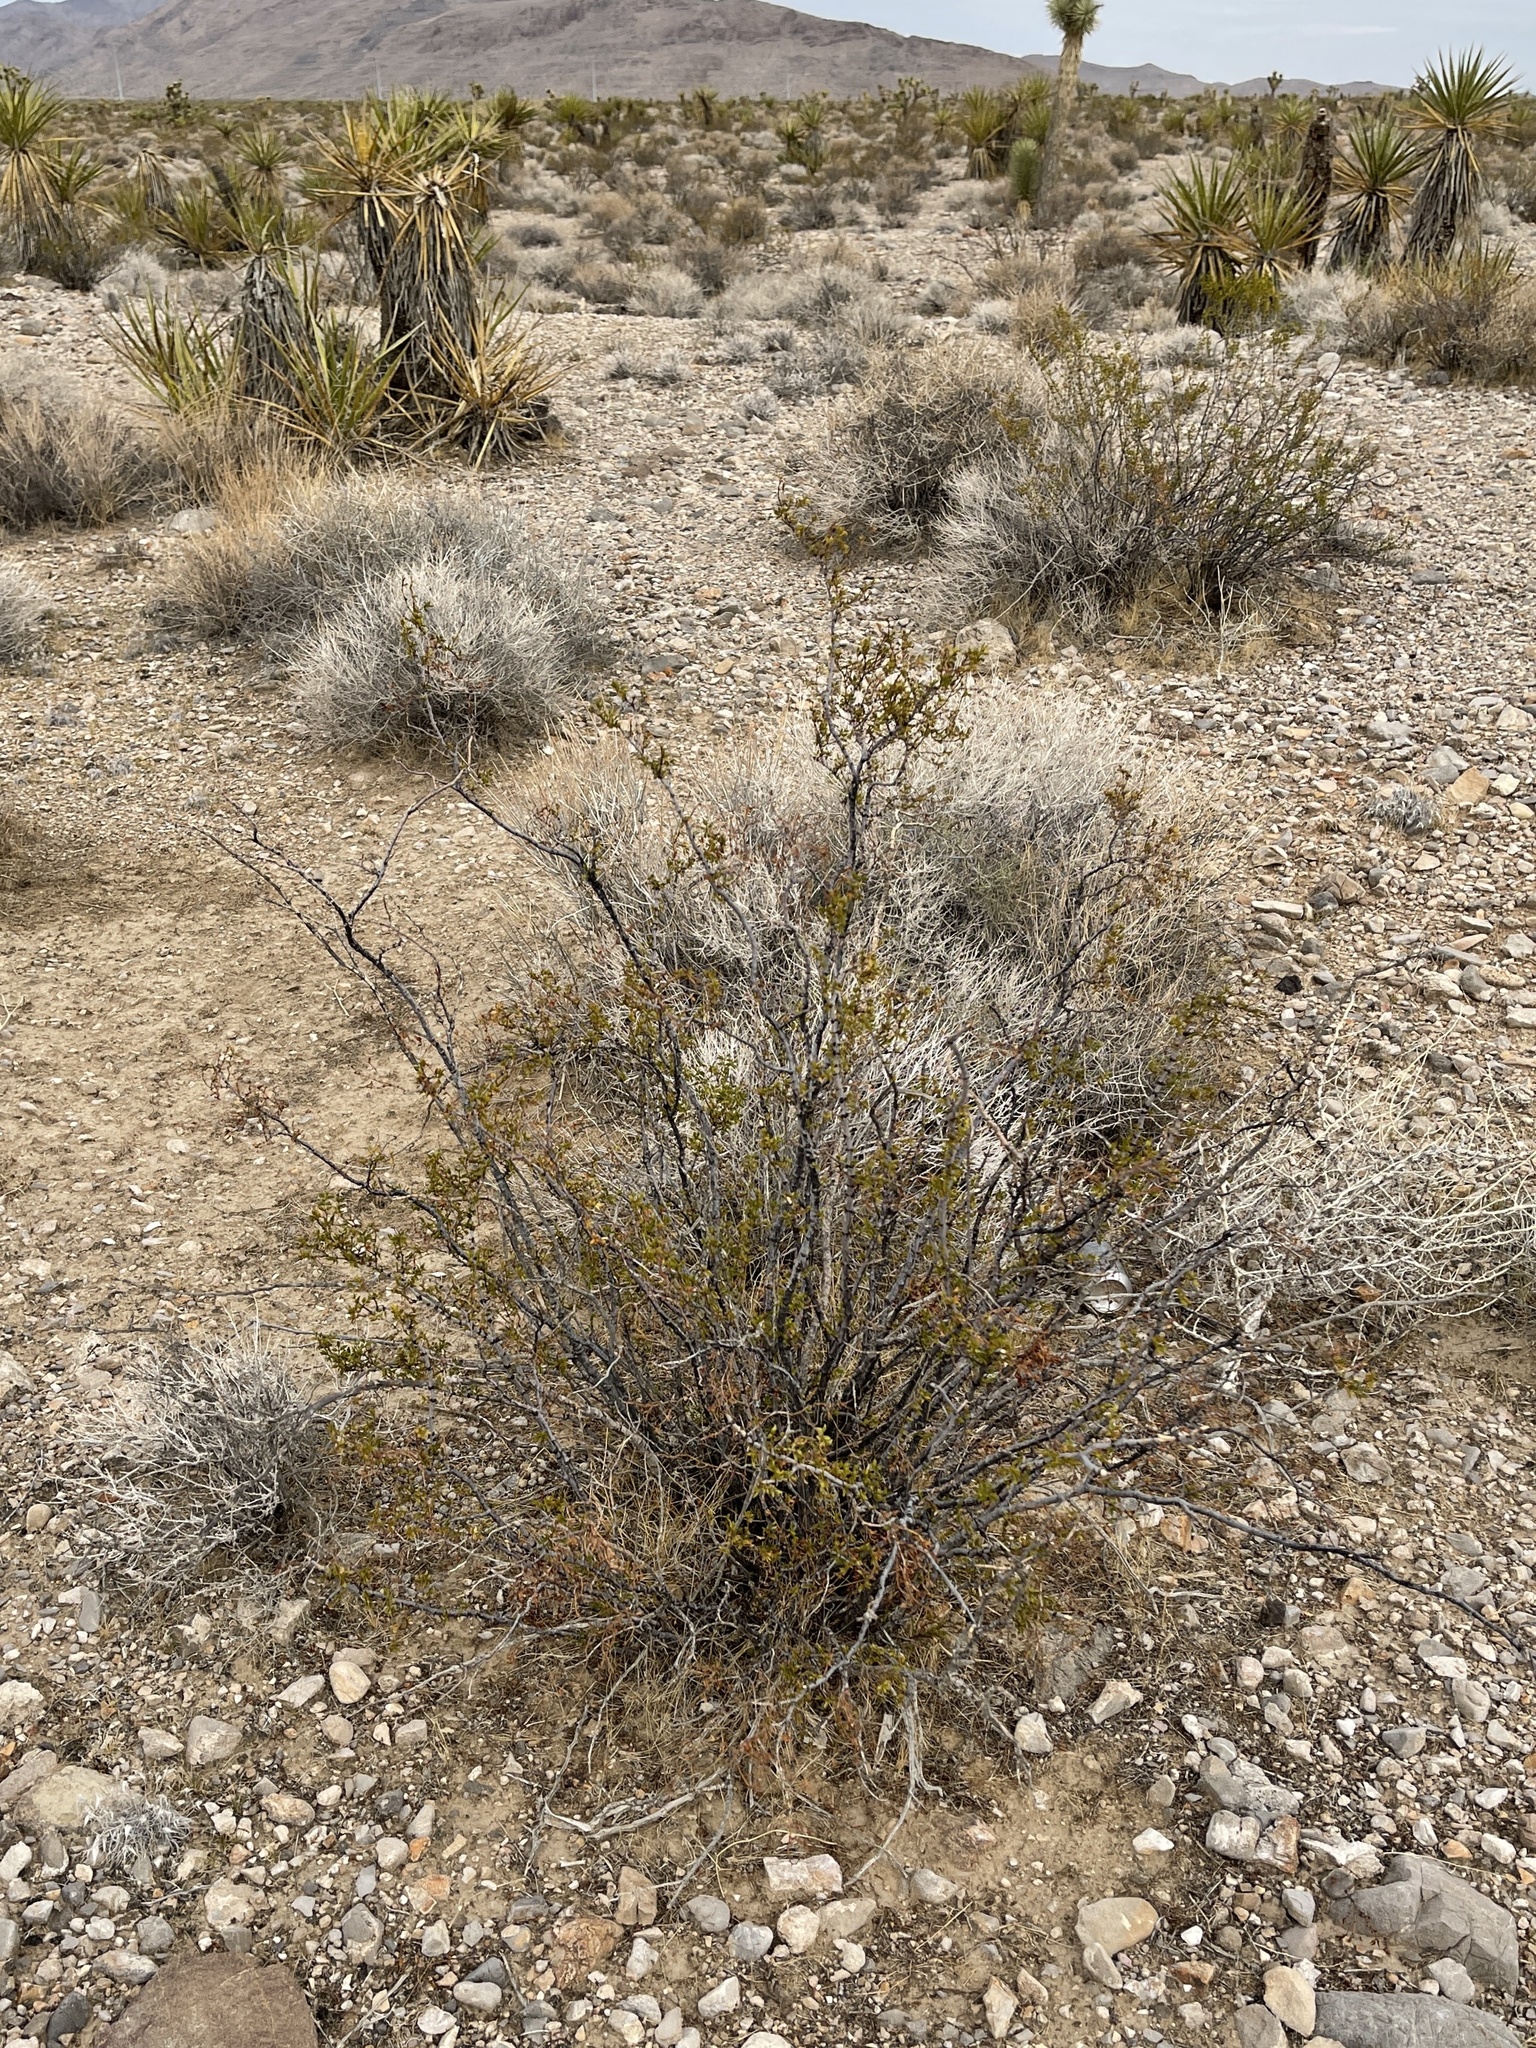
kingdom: Plantae
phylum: Tracheophyta
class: Magnoliopsida
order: Zygophyllales
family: Zygophyllaceae
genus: Larrea
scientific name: Larrea tridentata
